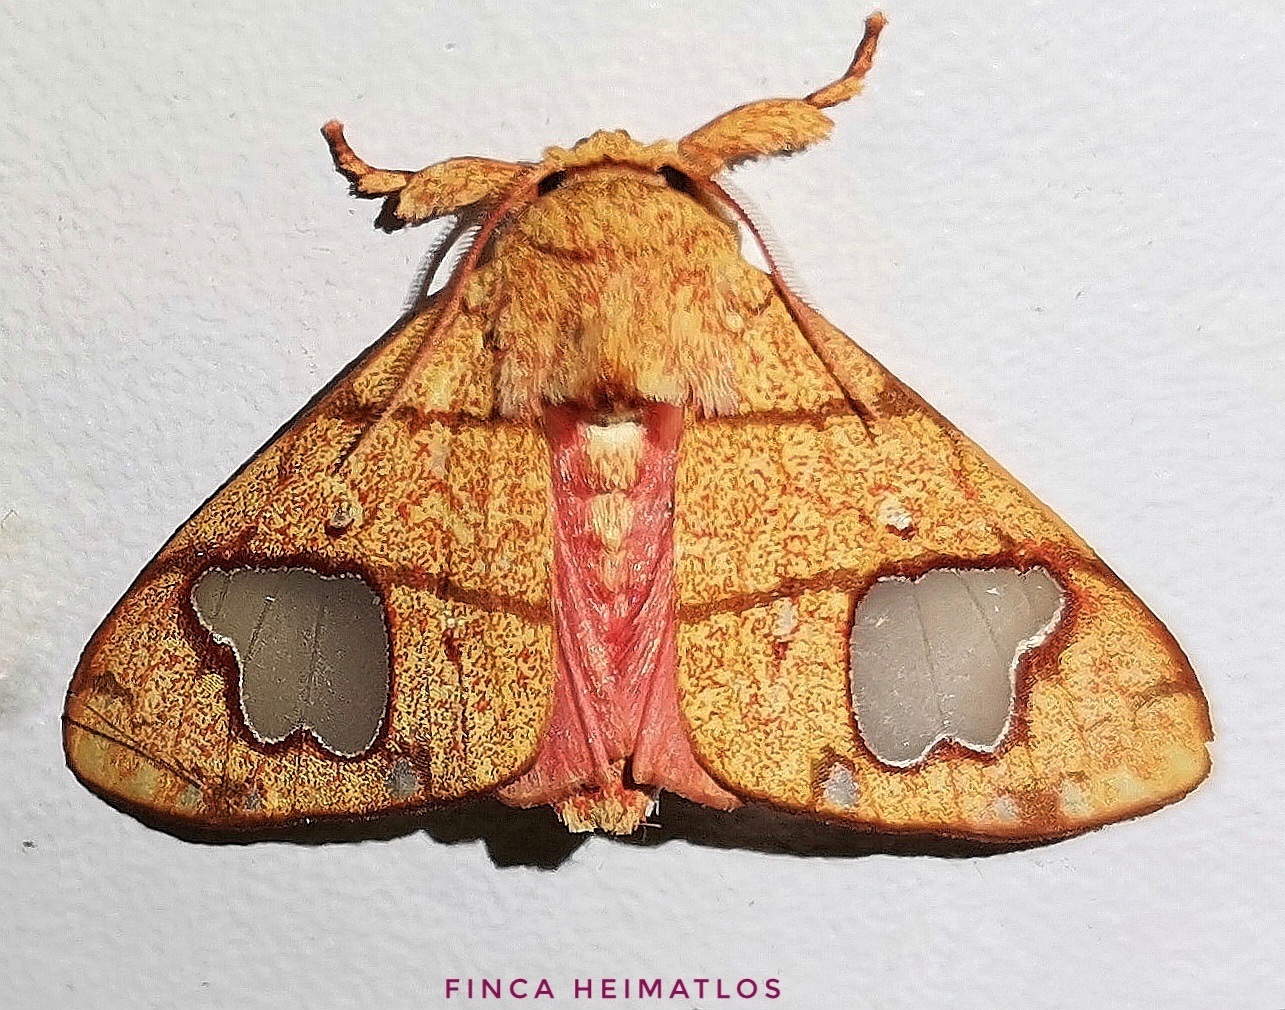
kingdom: Animalia
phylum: Arthropoda
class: Insecta
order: Lepidoptera
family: Erebidae
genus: Zatrephes
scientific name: Zatrephes trailii
